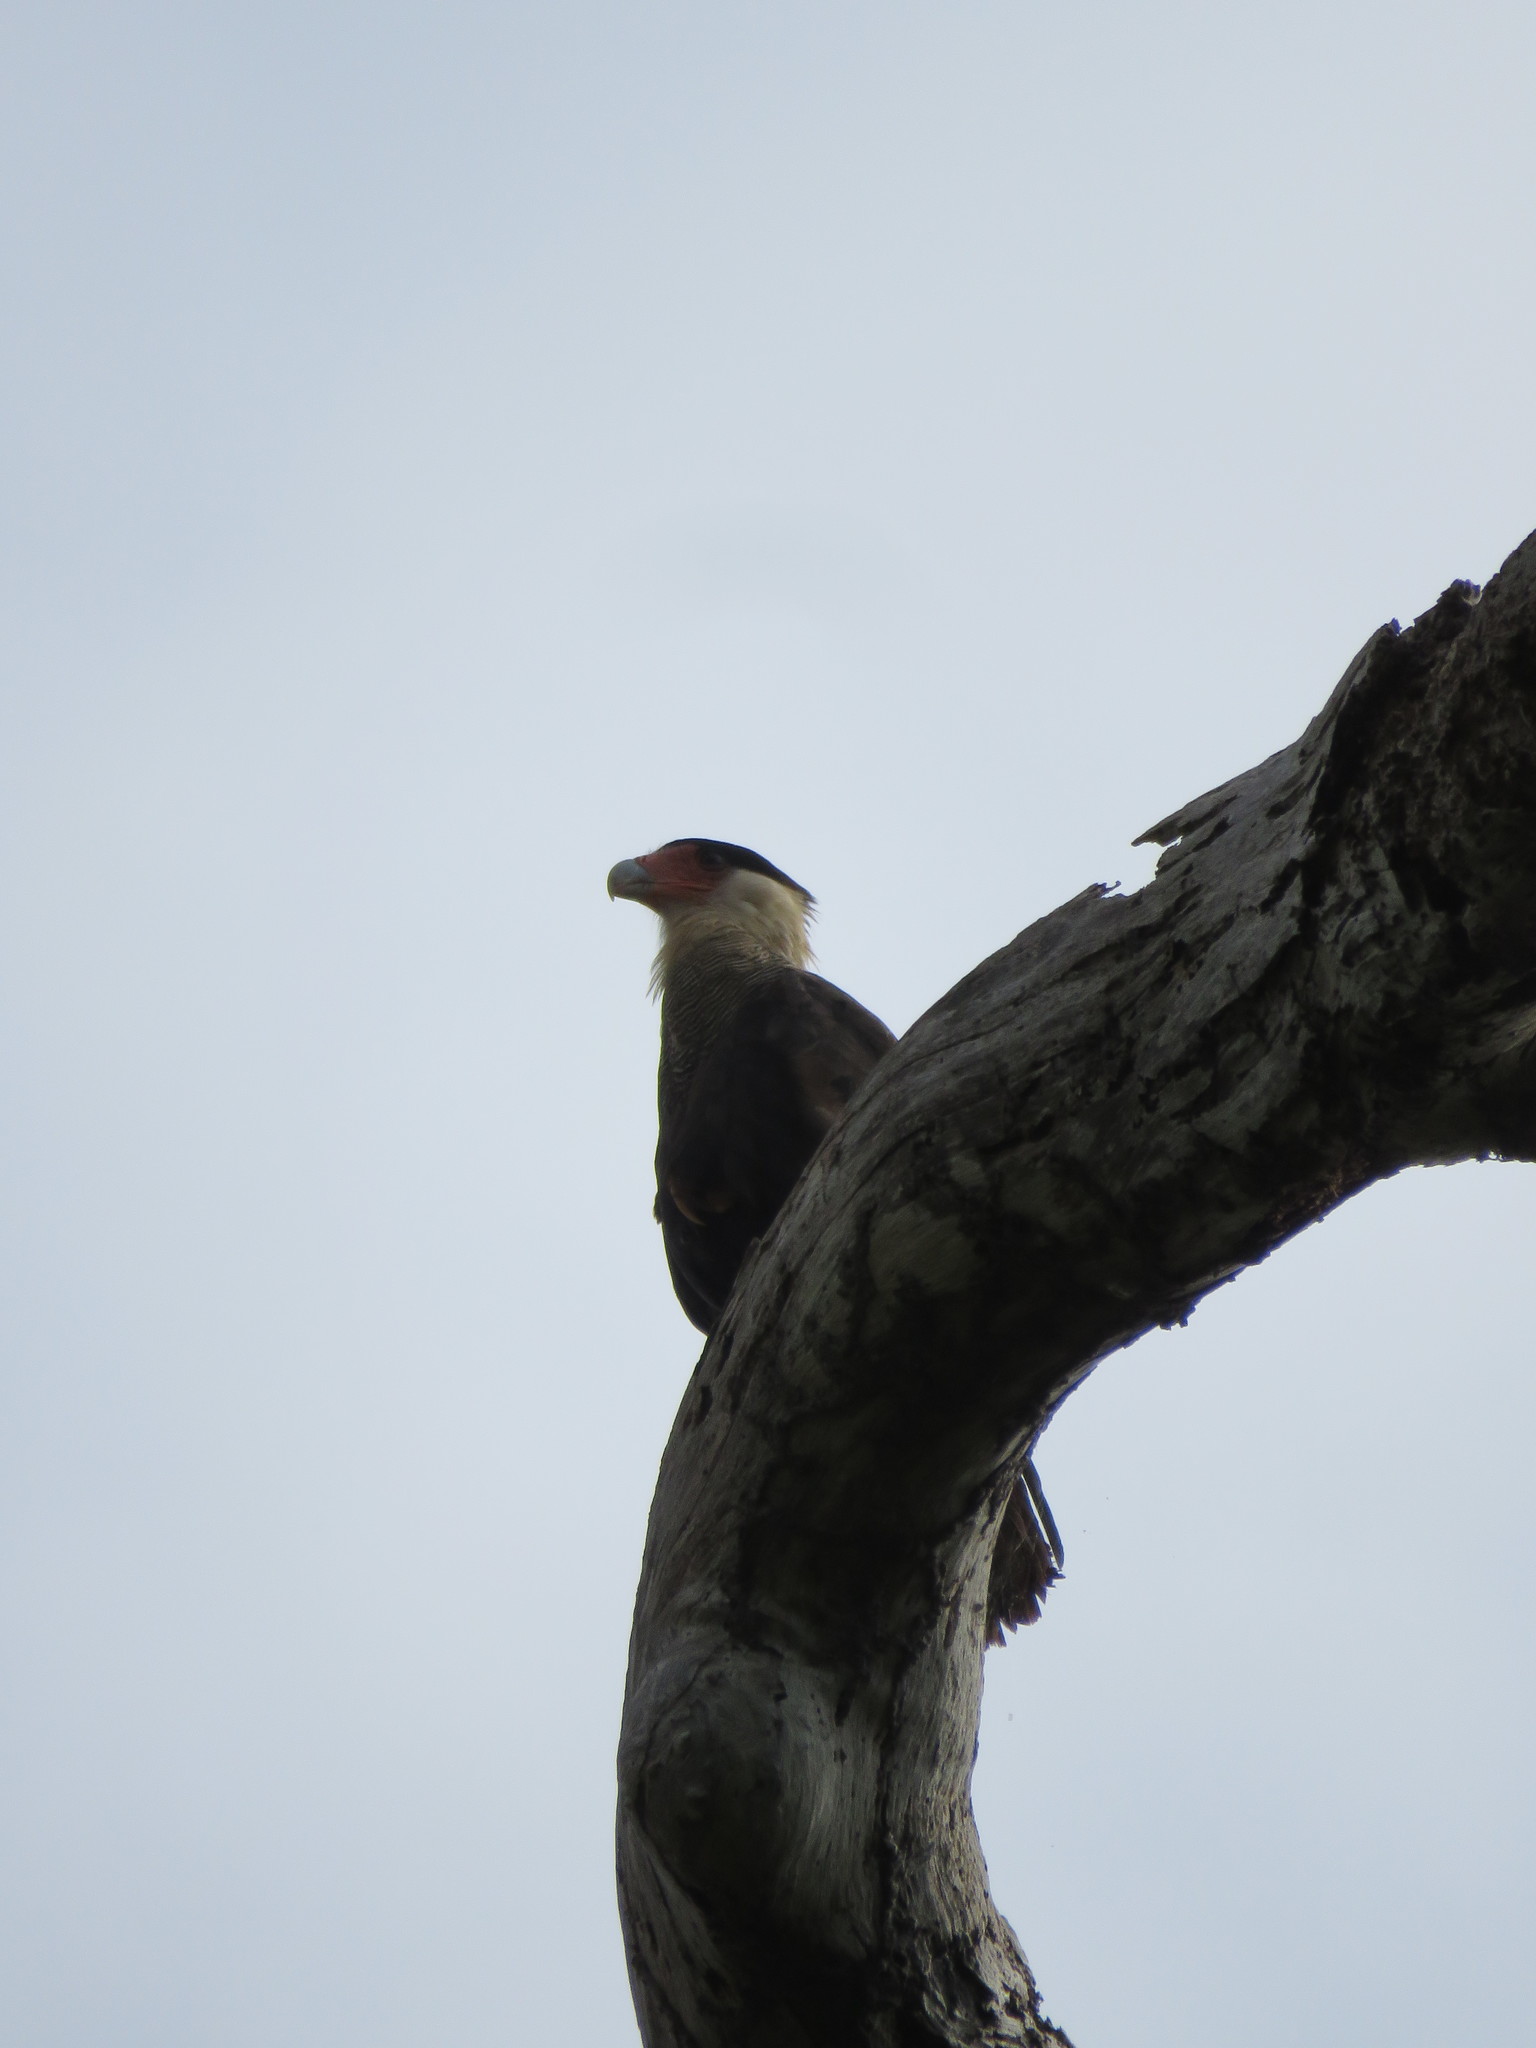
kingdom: Animalia
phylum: Chordata
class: Aves
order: Falconiformes
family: Falconidae
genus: Caracara
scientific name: Caracara plancus
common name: Southern caracara
